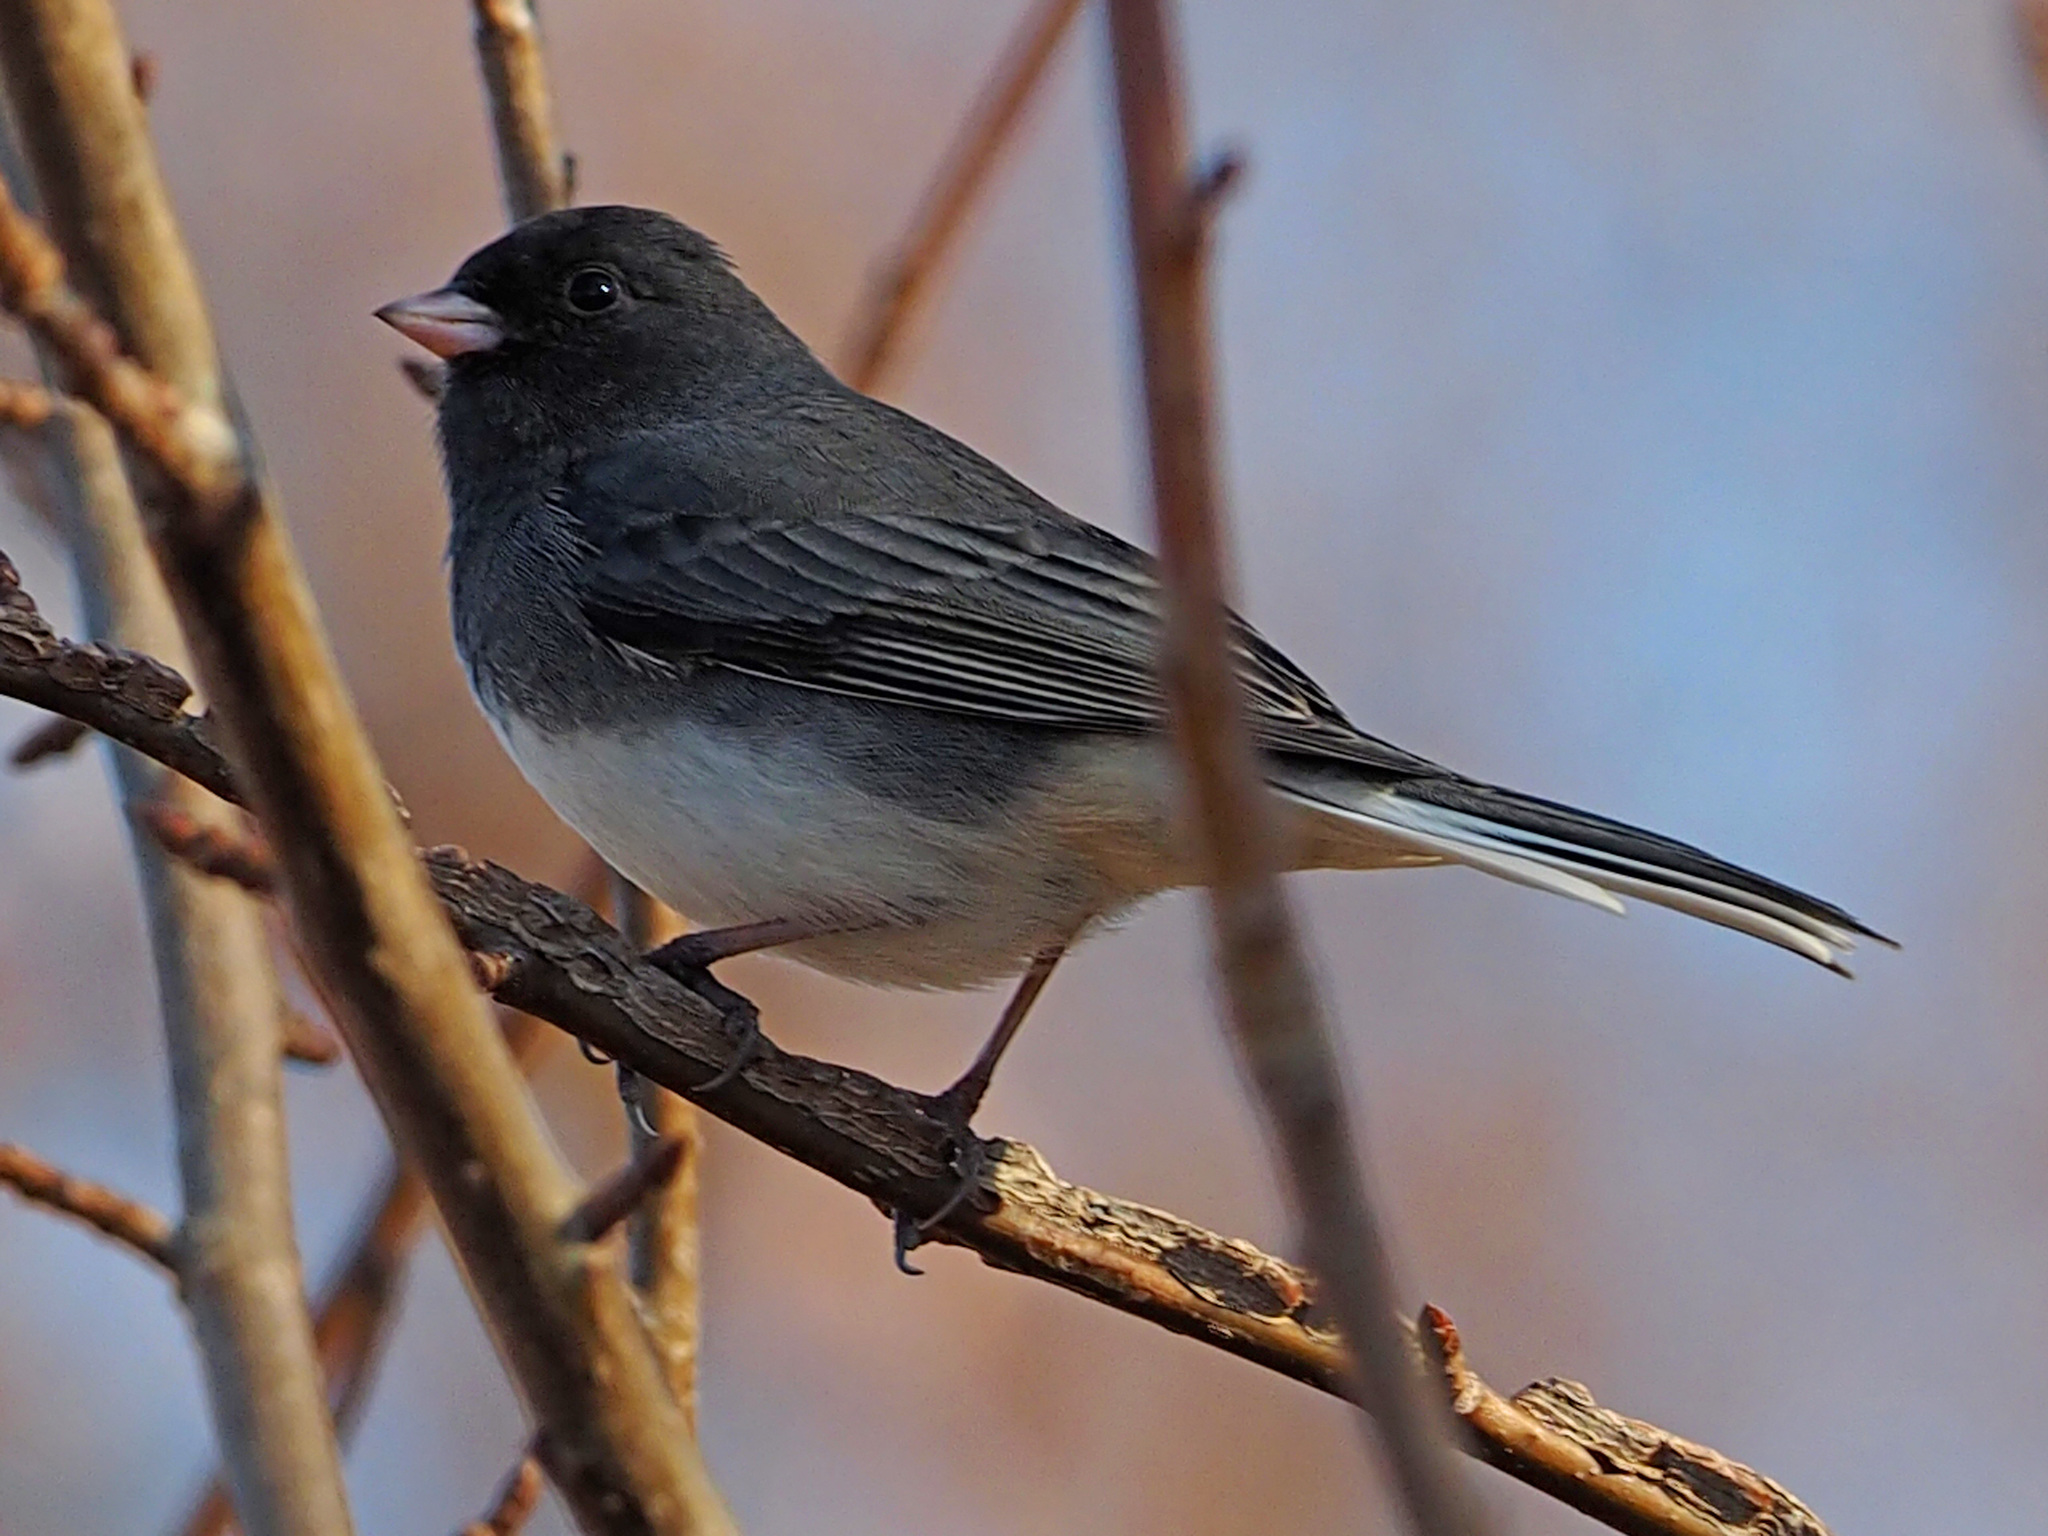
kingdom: Animalia
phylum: Chordata
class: Aves
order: Passeriformes
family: Passerellidae
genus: Junco
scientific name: Junco hyemalis
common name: Dark-eyed junco
